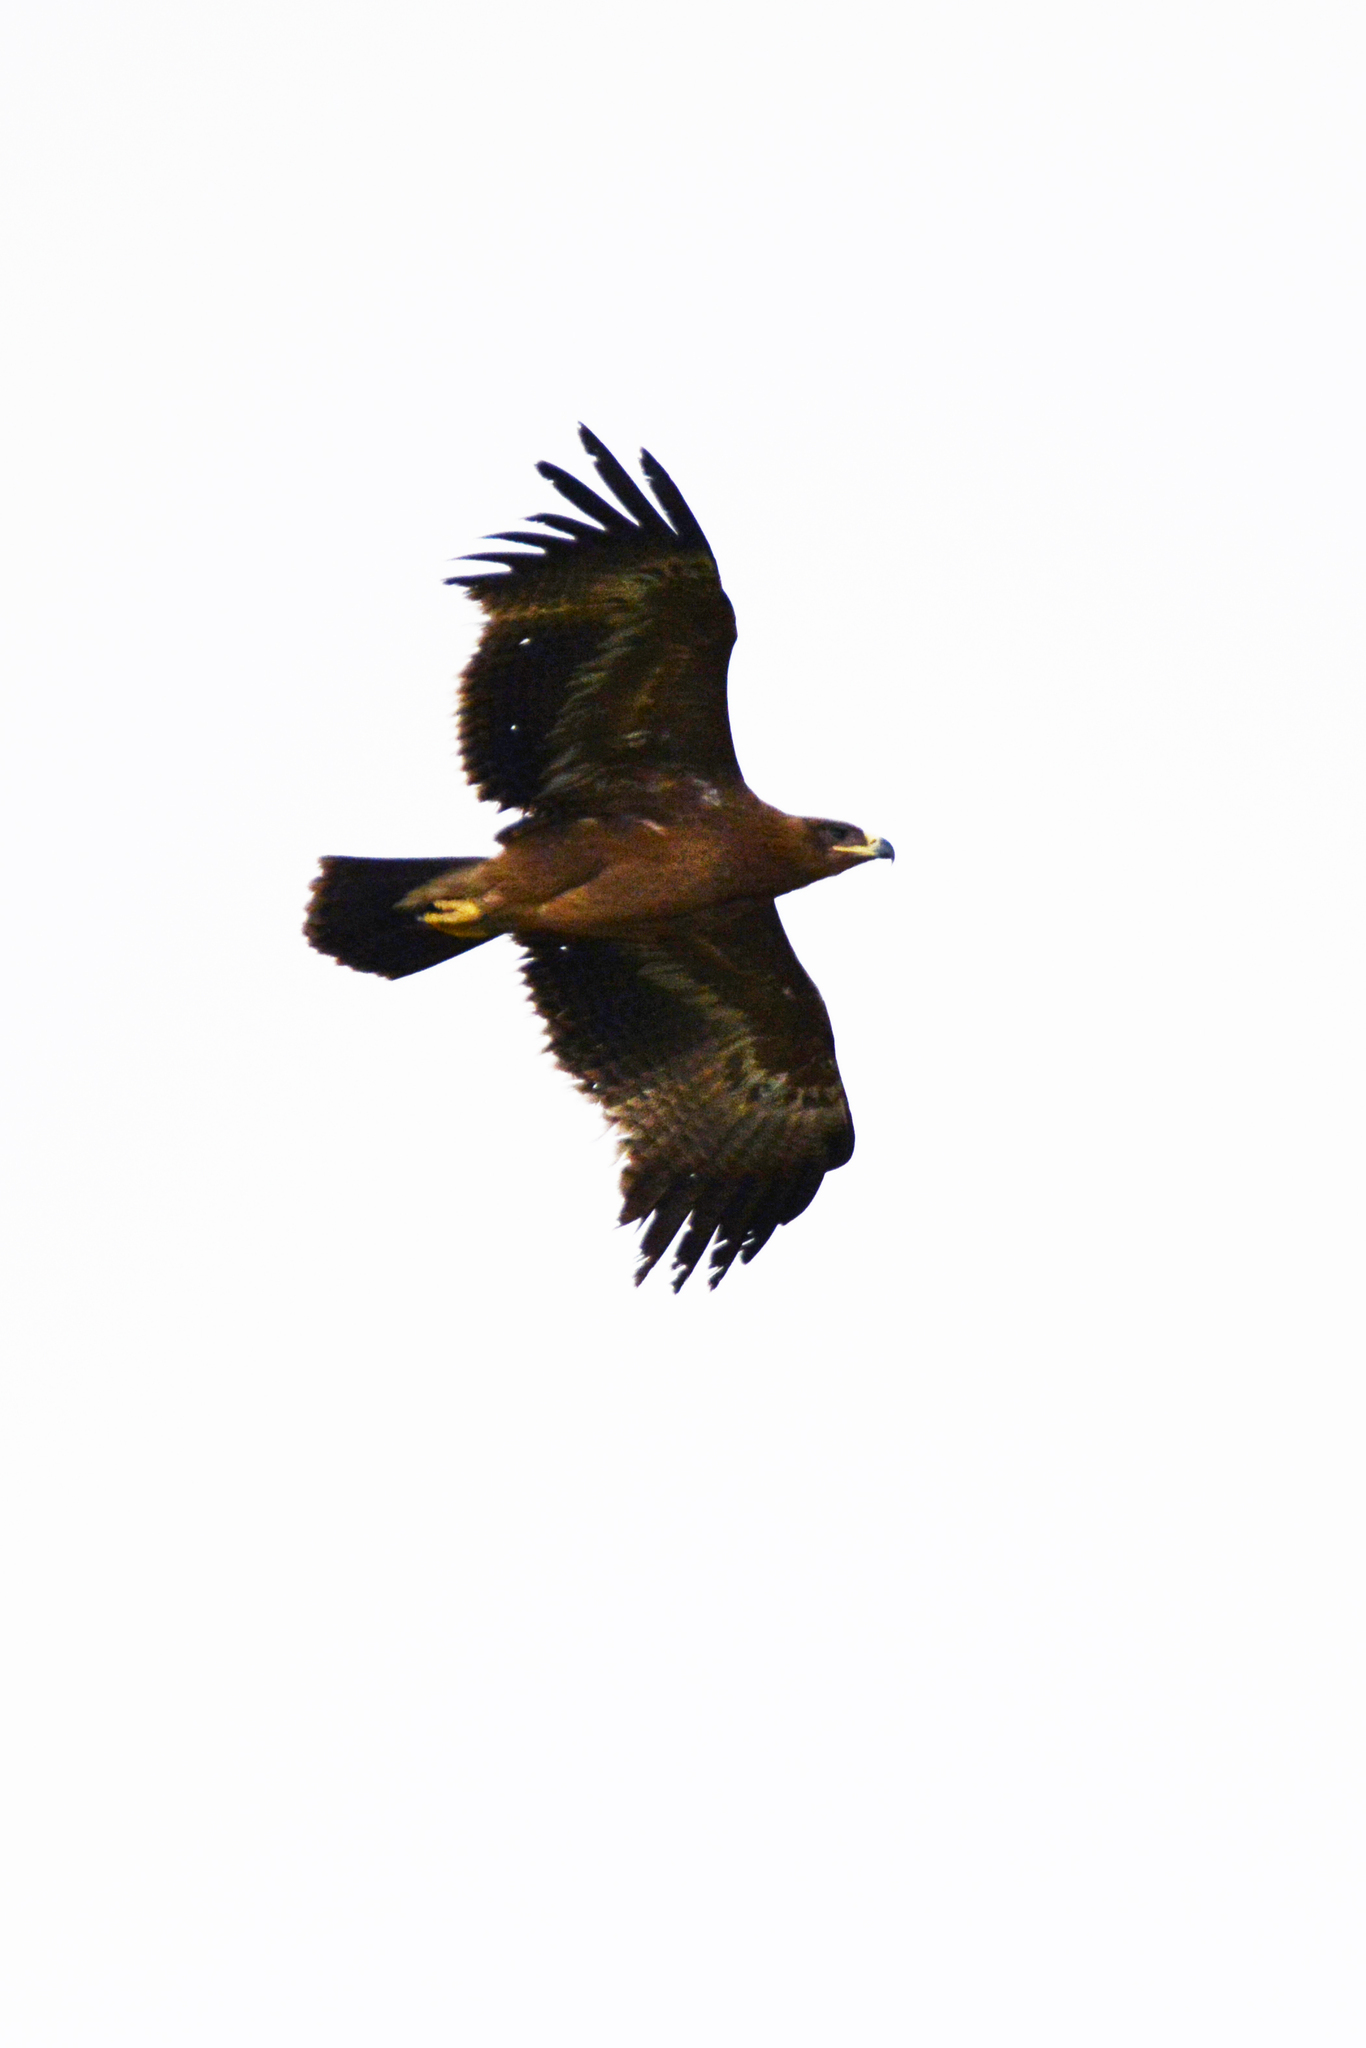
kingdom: Animalia
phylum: Chordata
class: Aves
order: Accipitriformes
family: Accipitridae
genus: Aquila
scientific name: Aquila nipalensis
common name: Steppe eagle
